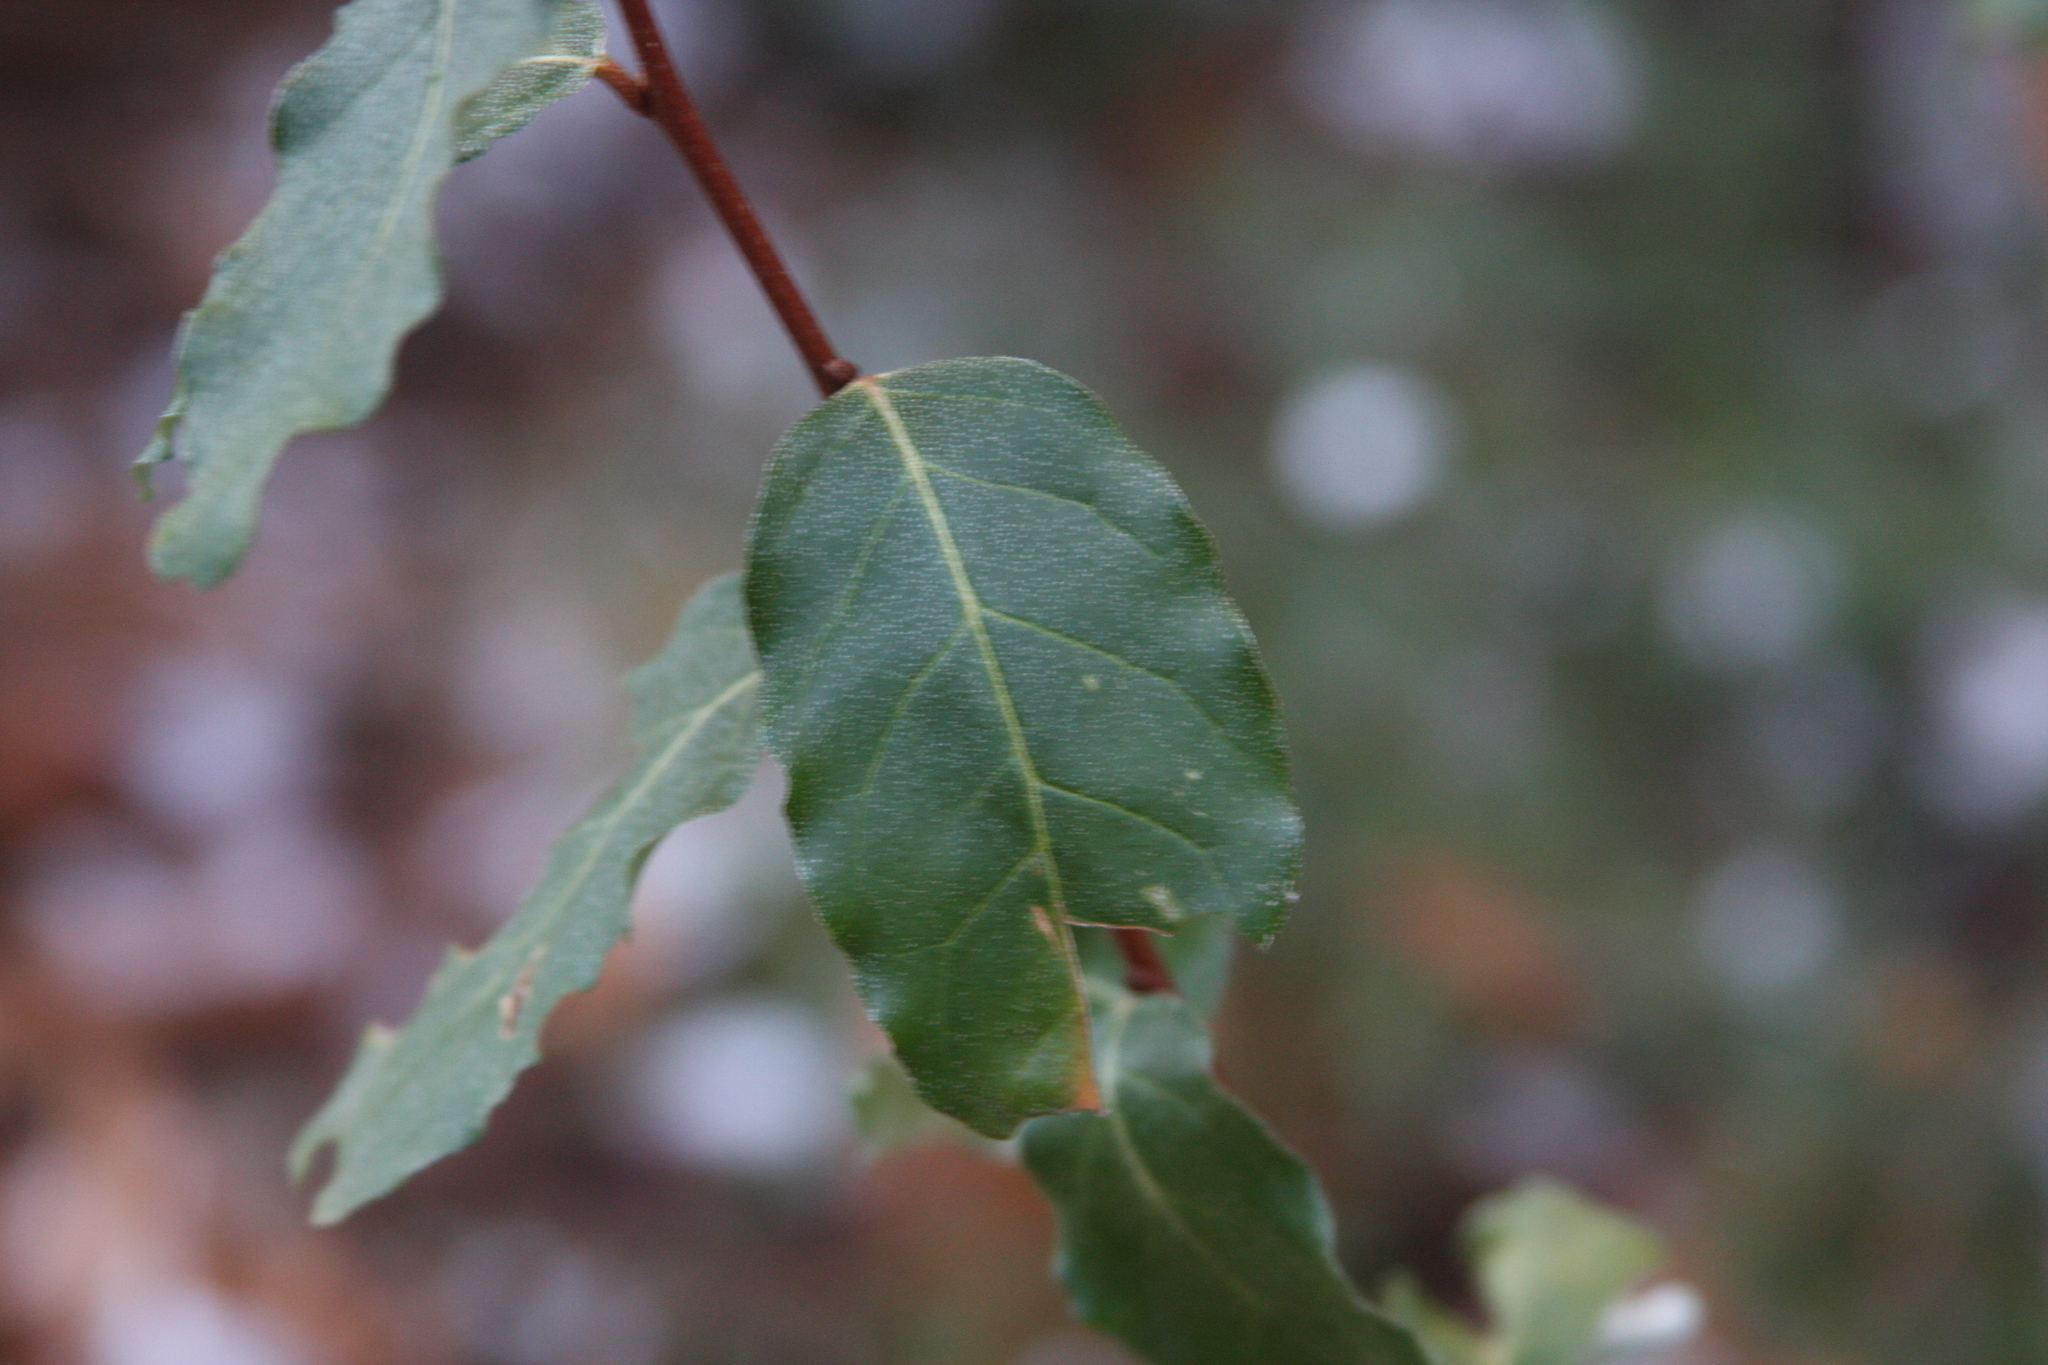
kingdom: Plantae
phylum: Tracheophyta
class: Magnoliopsida
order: Rosales
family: Elaeagnaceae
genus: Elaeagnus
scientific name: Elaeagnus umbellata
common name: Autumn olive
